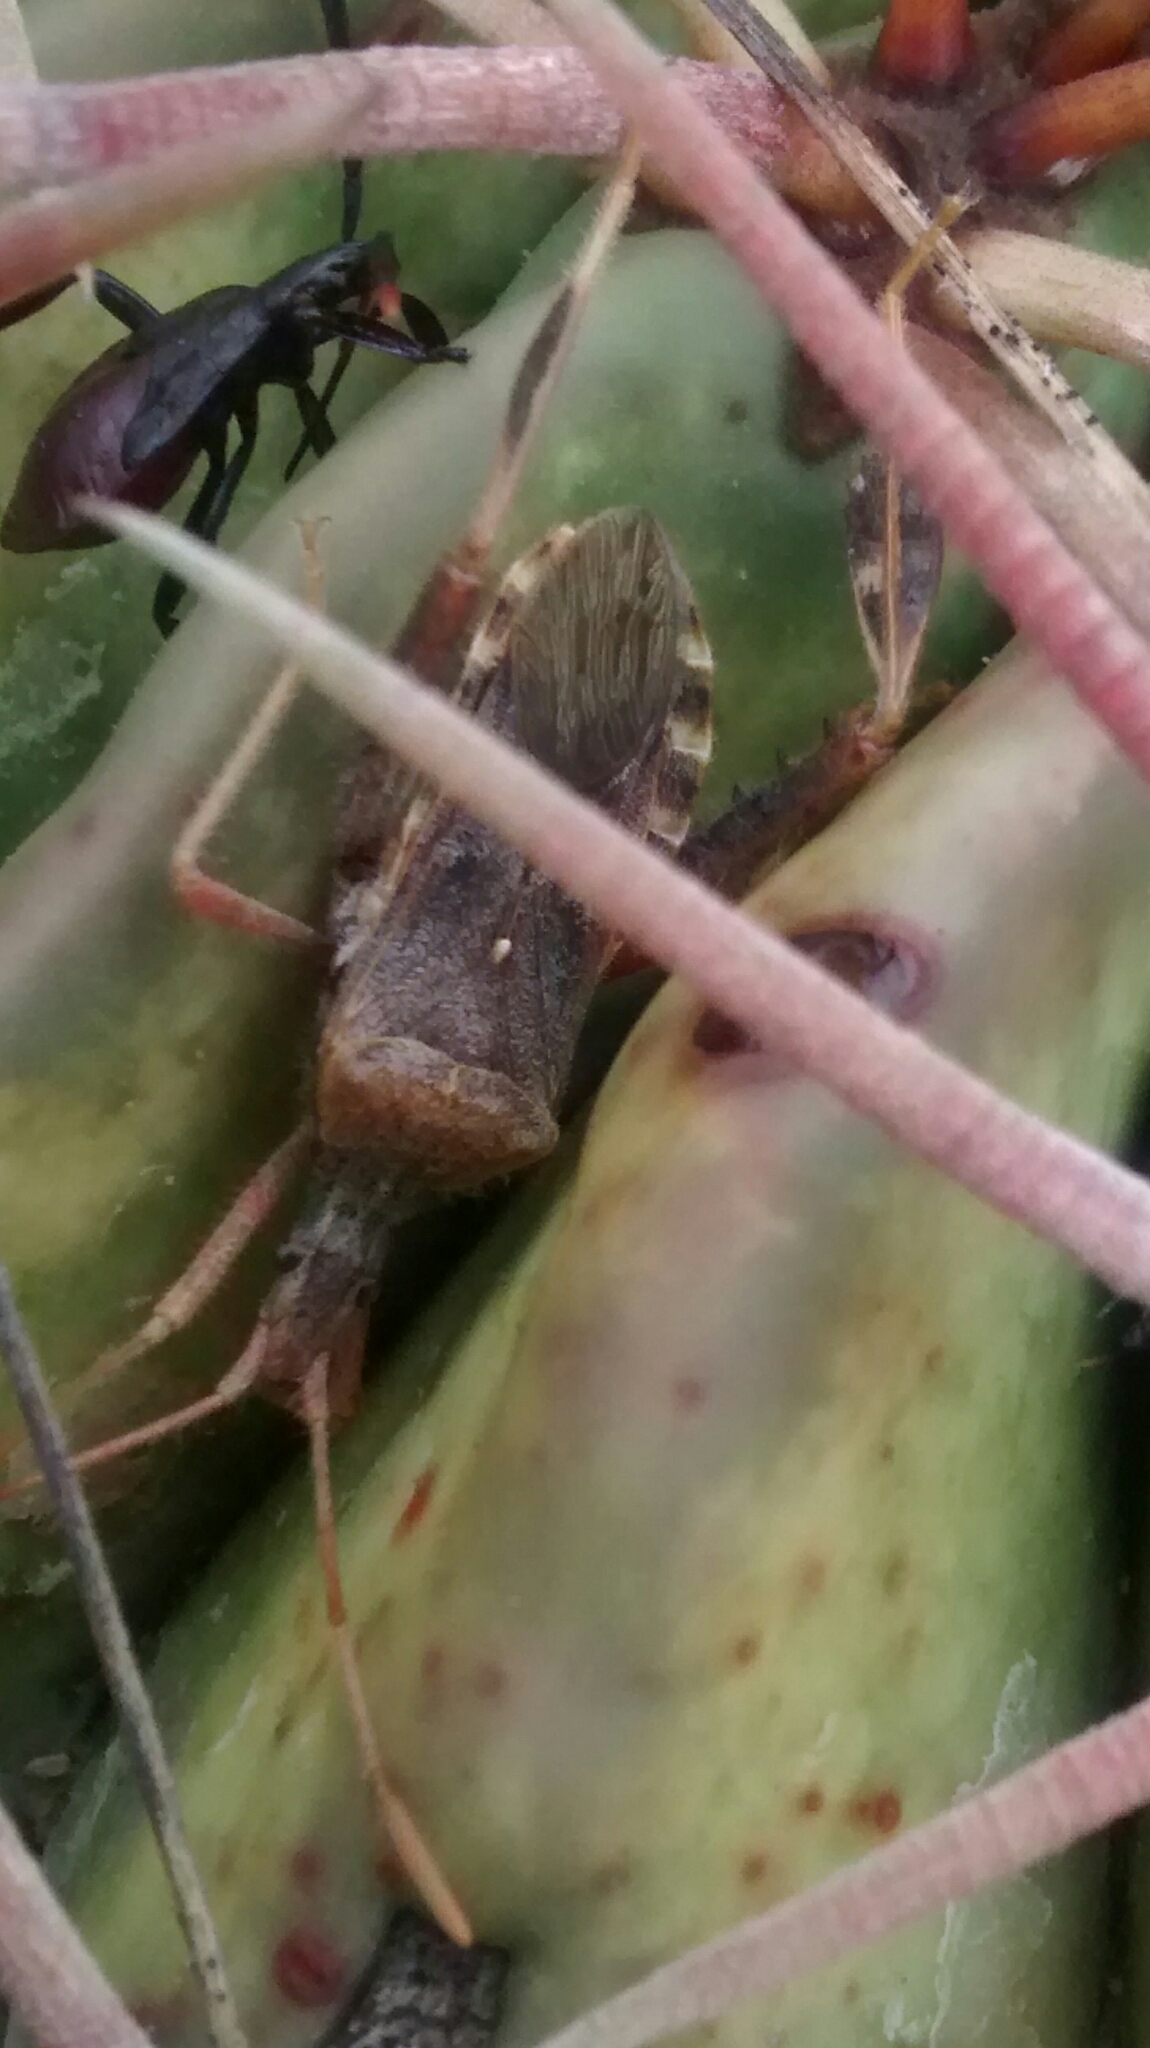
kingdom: Animalia
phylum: Arthropoda
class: Insecta
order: Hemiptera
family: Coreidae
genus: Narnia
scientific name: Narnia femorata
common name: Leaf-footed cactus bug
